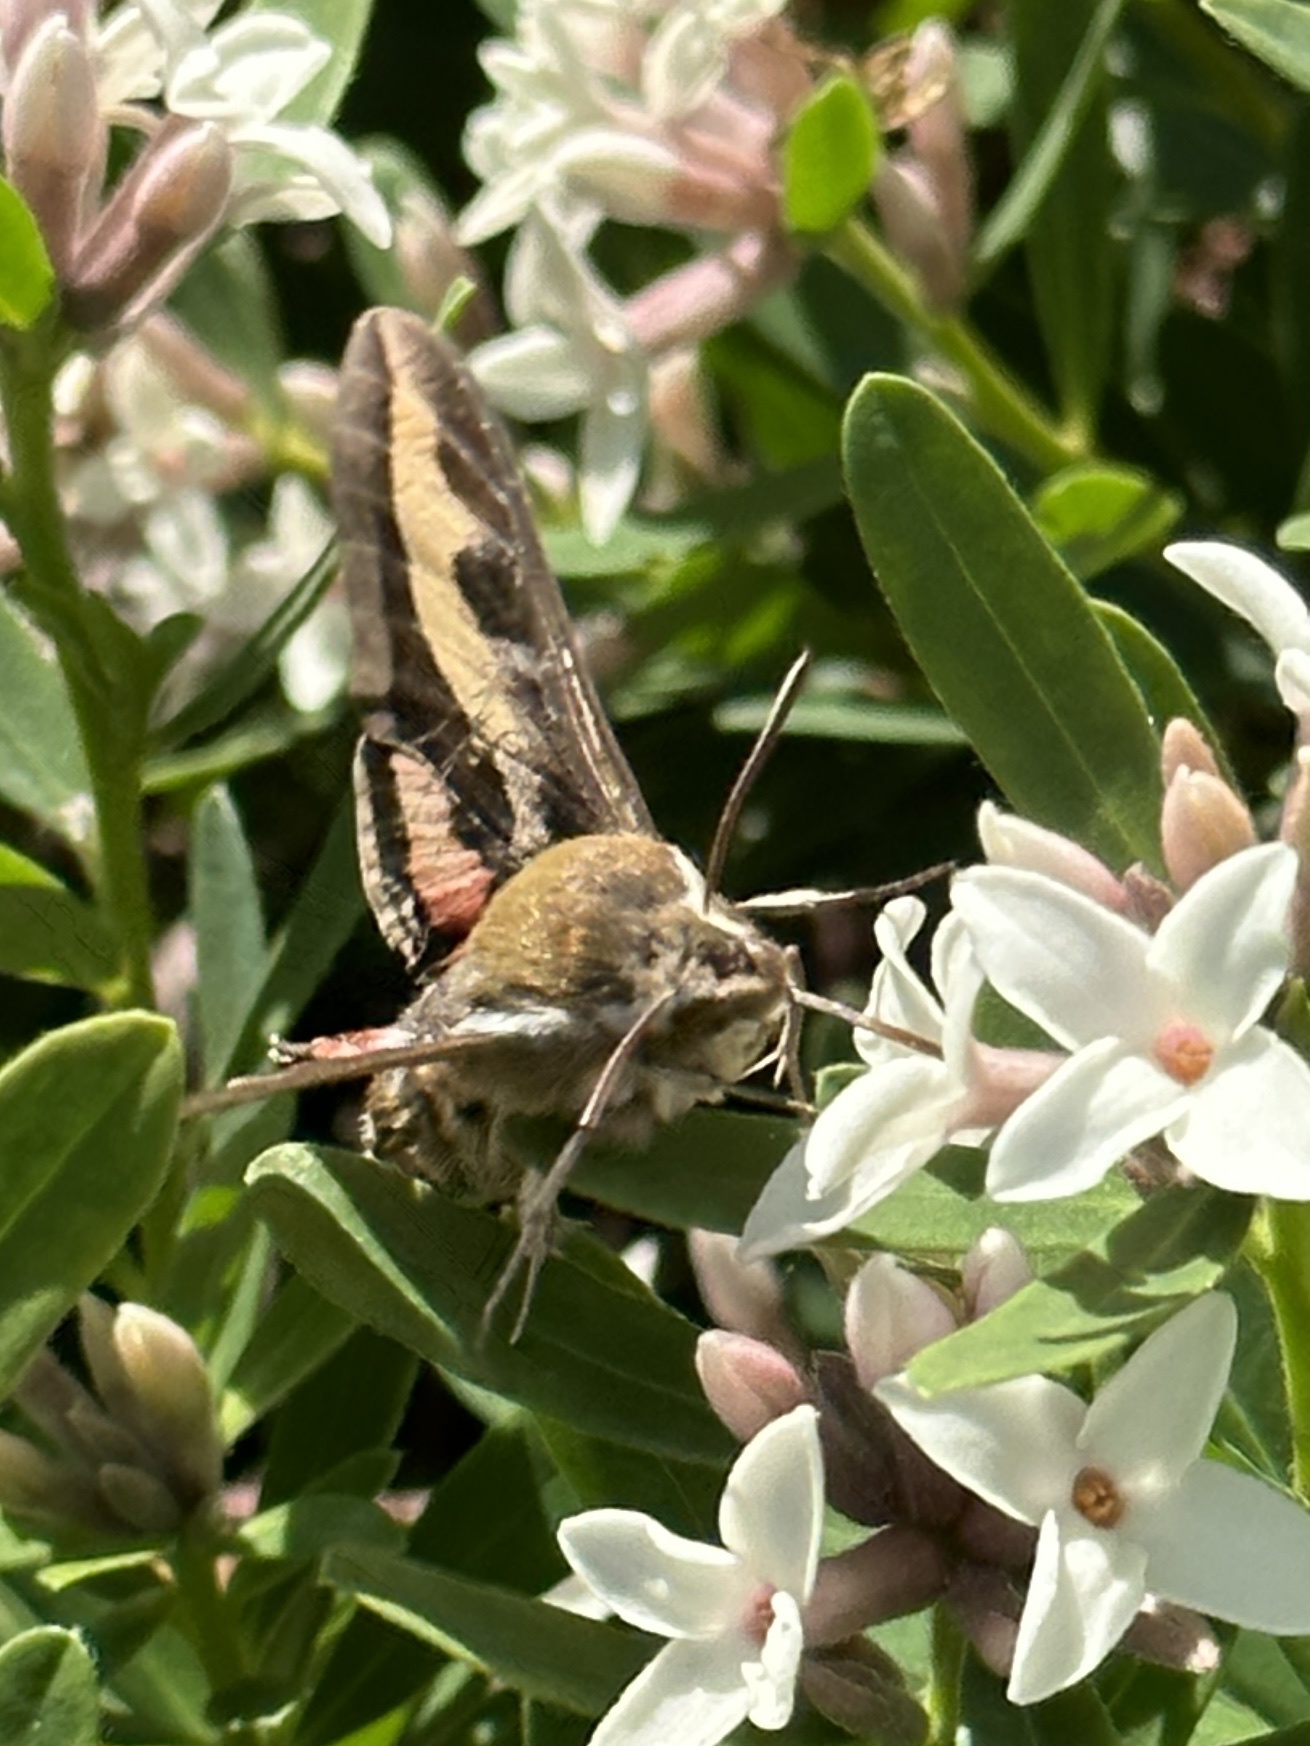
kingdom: Animalia
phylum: Arthropoda
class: Insecta
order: Lepidoptera
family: Sphingidae
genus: Hyles
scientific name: Hyles gallii
